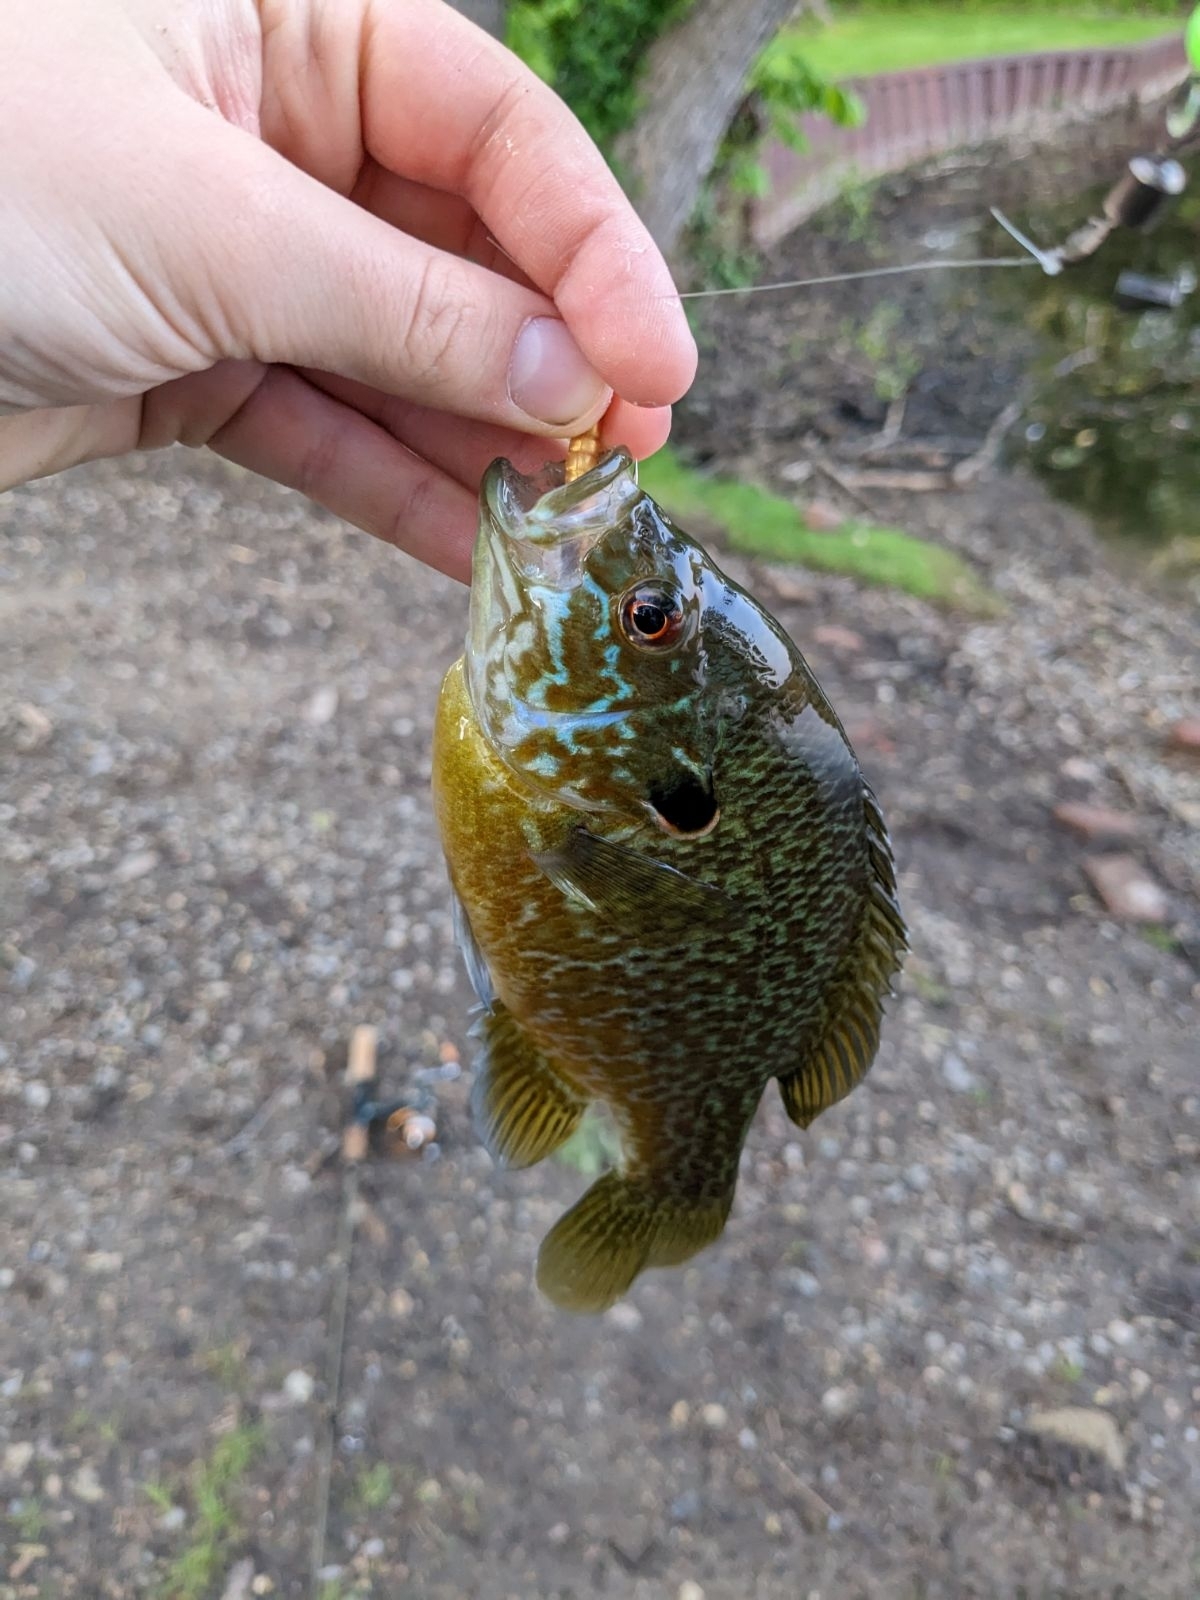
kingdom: Animalia
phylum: Chordata
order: Perciformes
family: Centrarchidae
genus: Lepomis
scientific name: Lepomis
